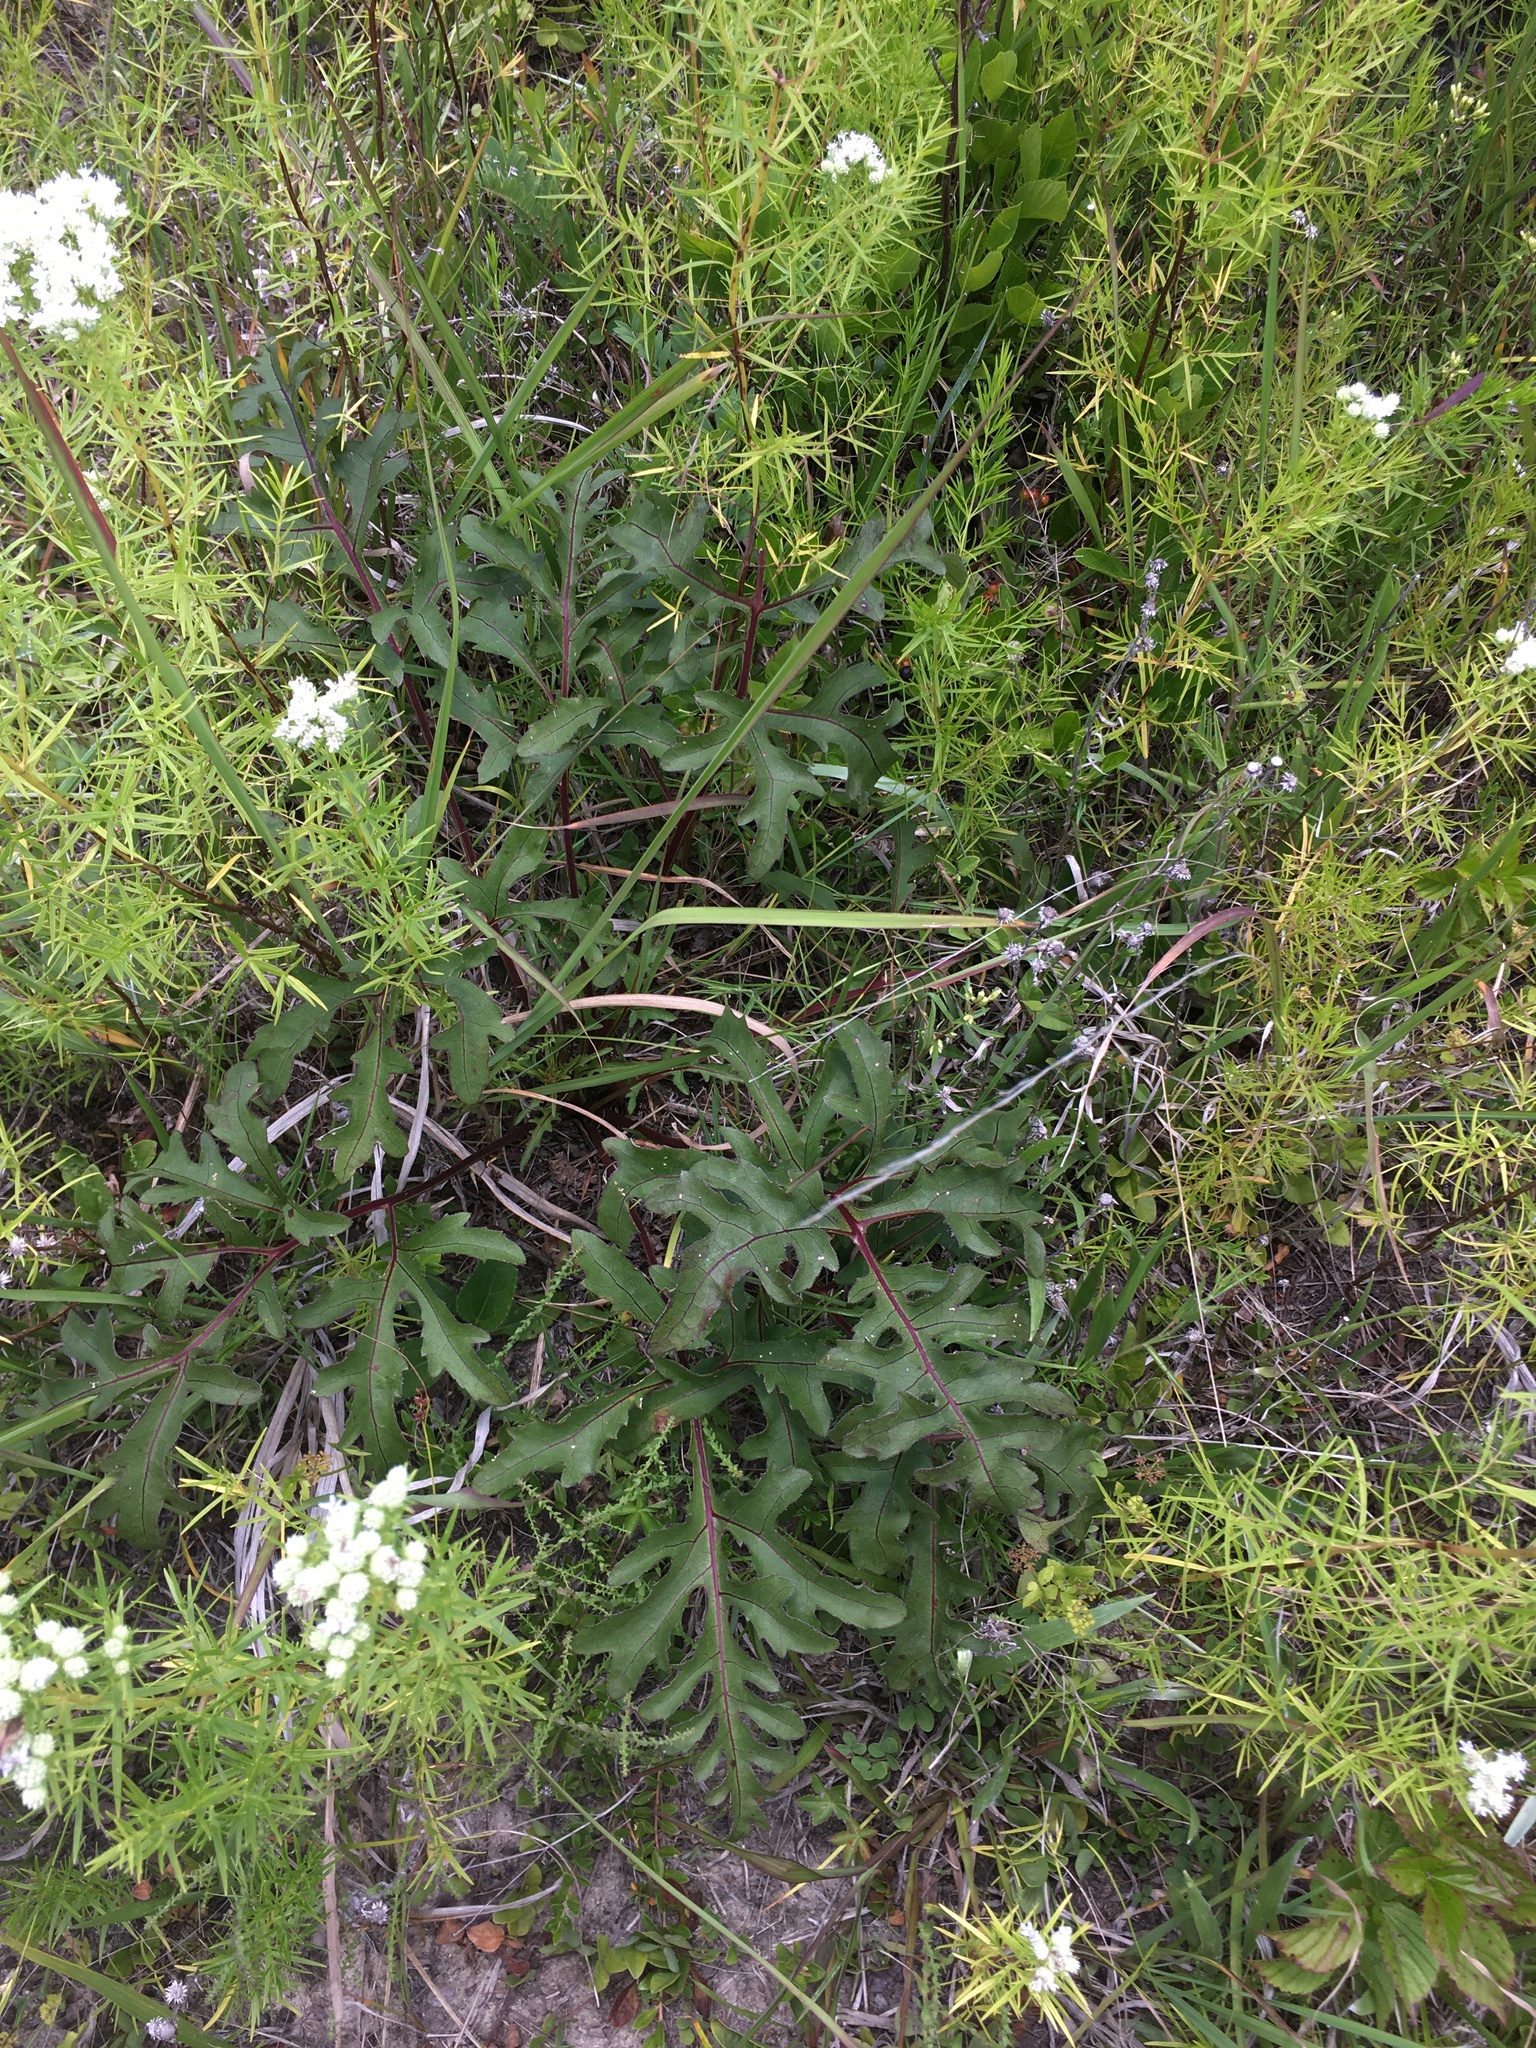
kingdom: Plantae
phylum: Tracheophyta
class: Magnoliopsida
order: Asterales
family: Asteraceae
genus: Silphium
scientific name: Silphium compositum
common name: Lesser basal-leaf rosinweed
